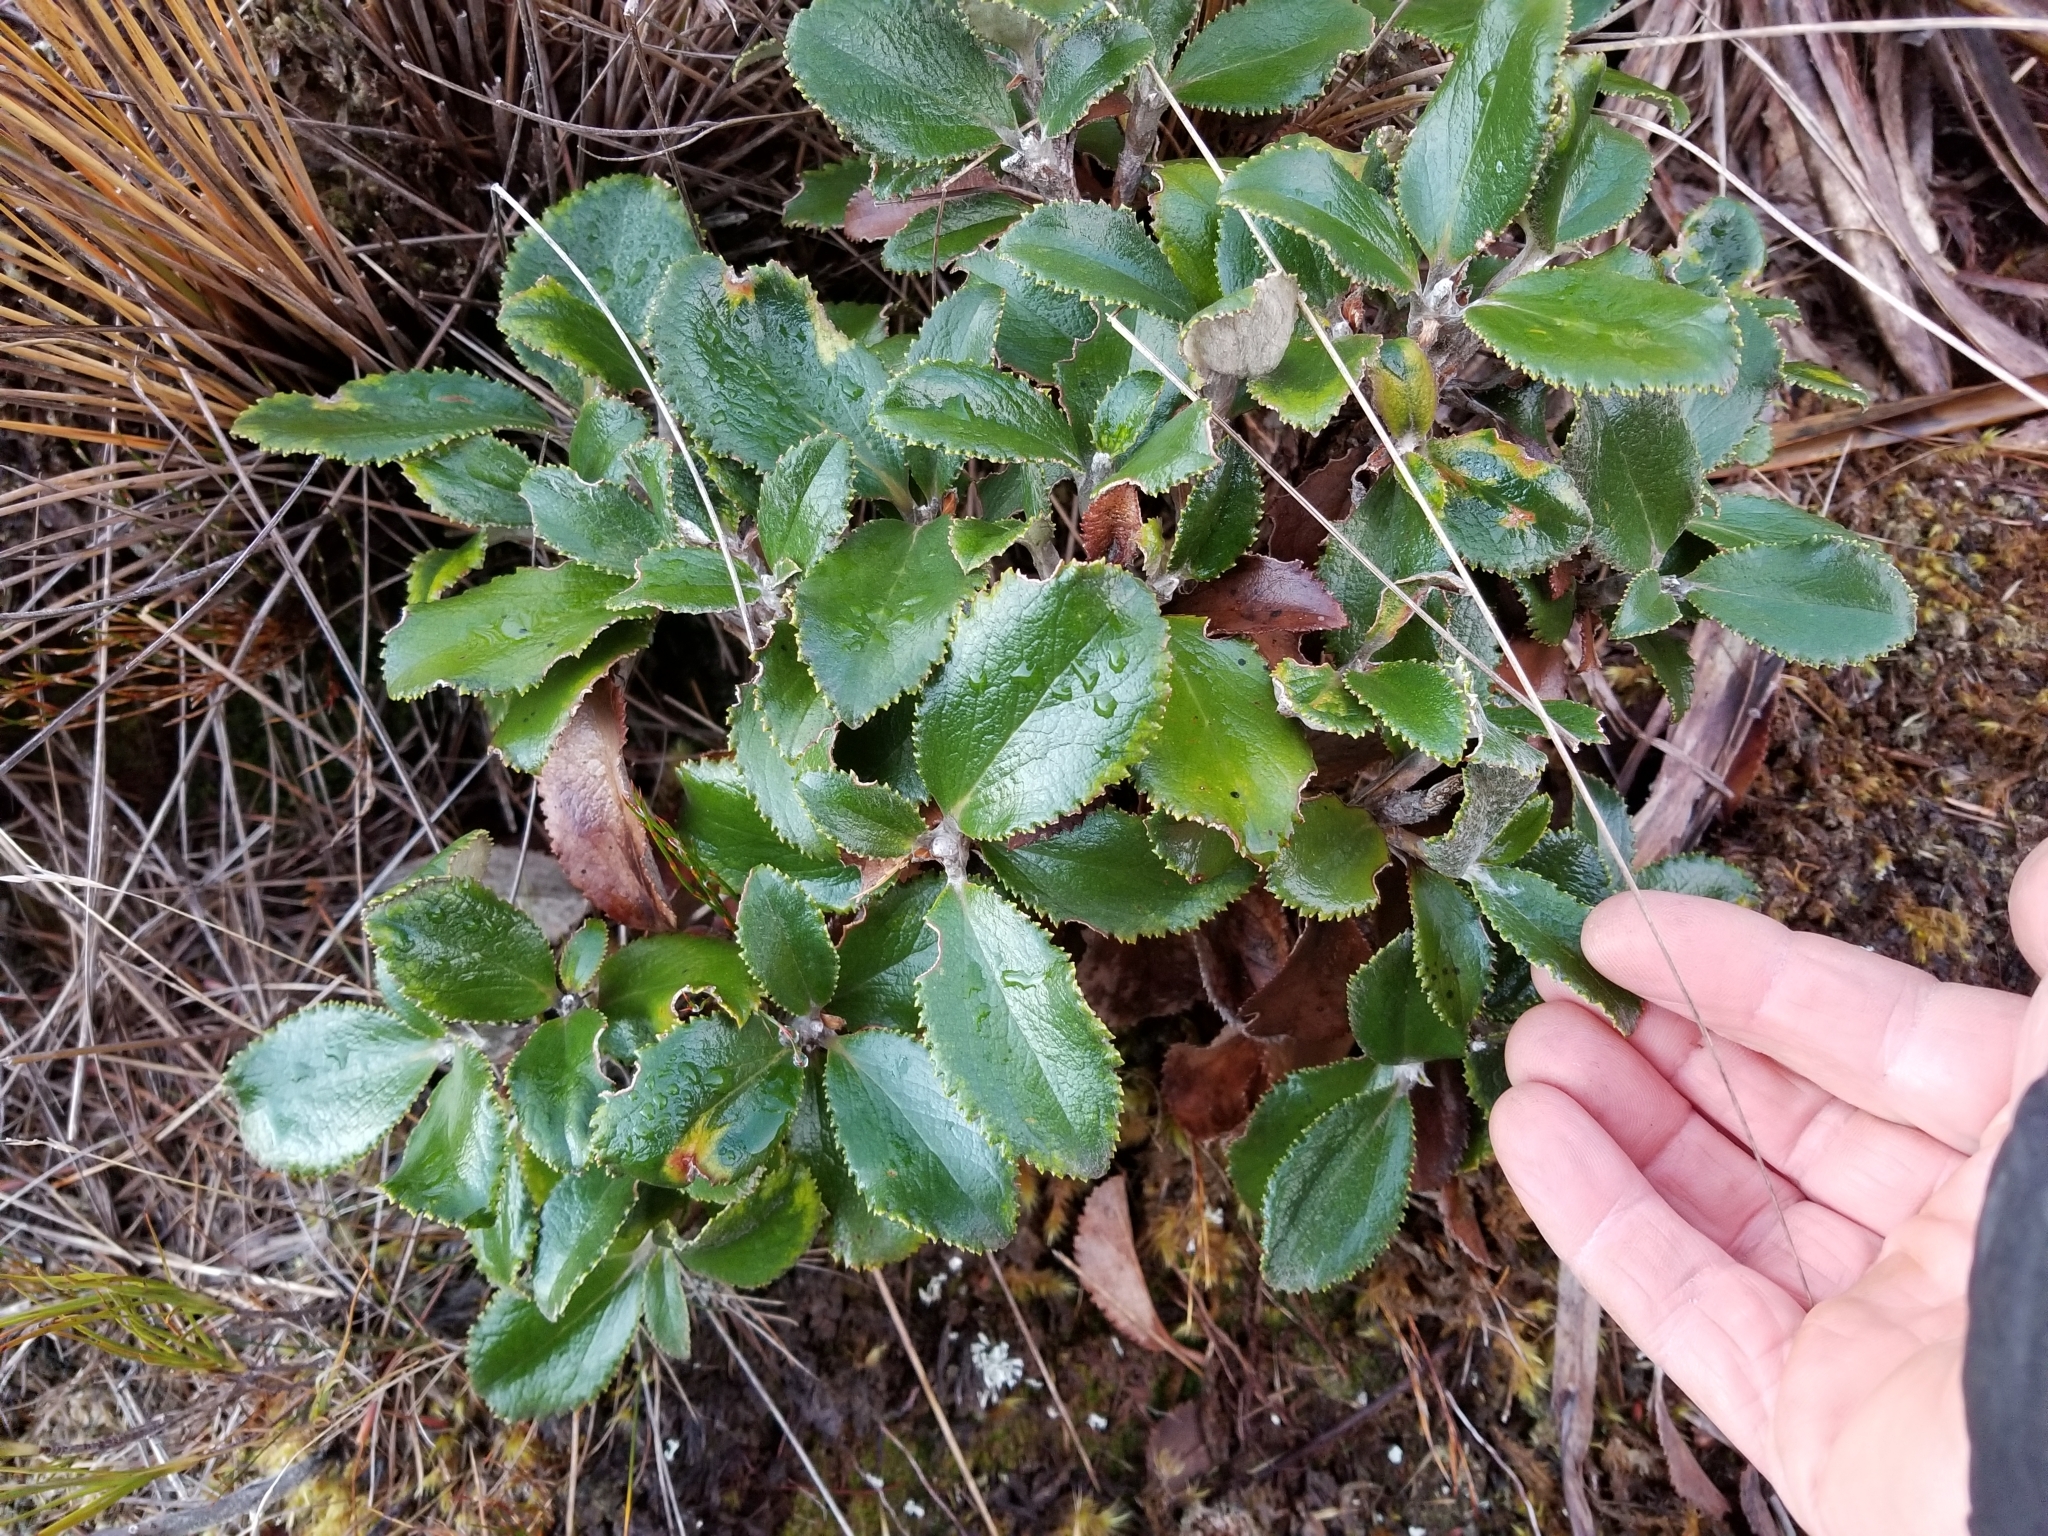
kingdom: Plantae
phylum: Tracheophyta
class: Magnoliopsida
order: Asterales
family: Asteraceae
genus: Macrolearia
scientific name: Macrolearia colensoi
